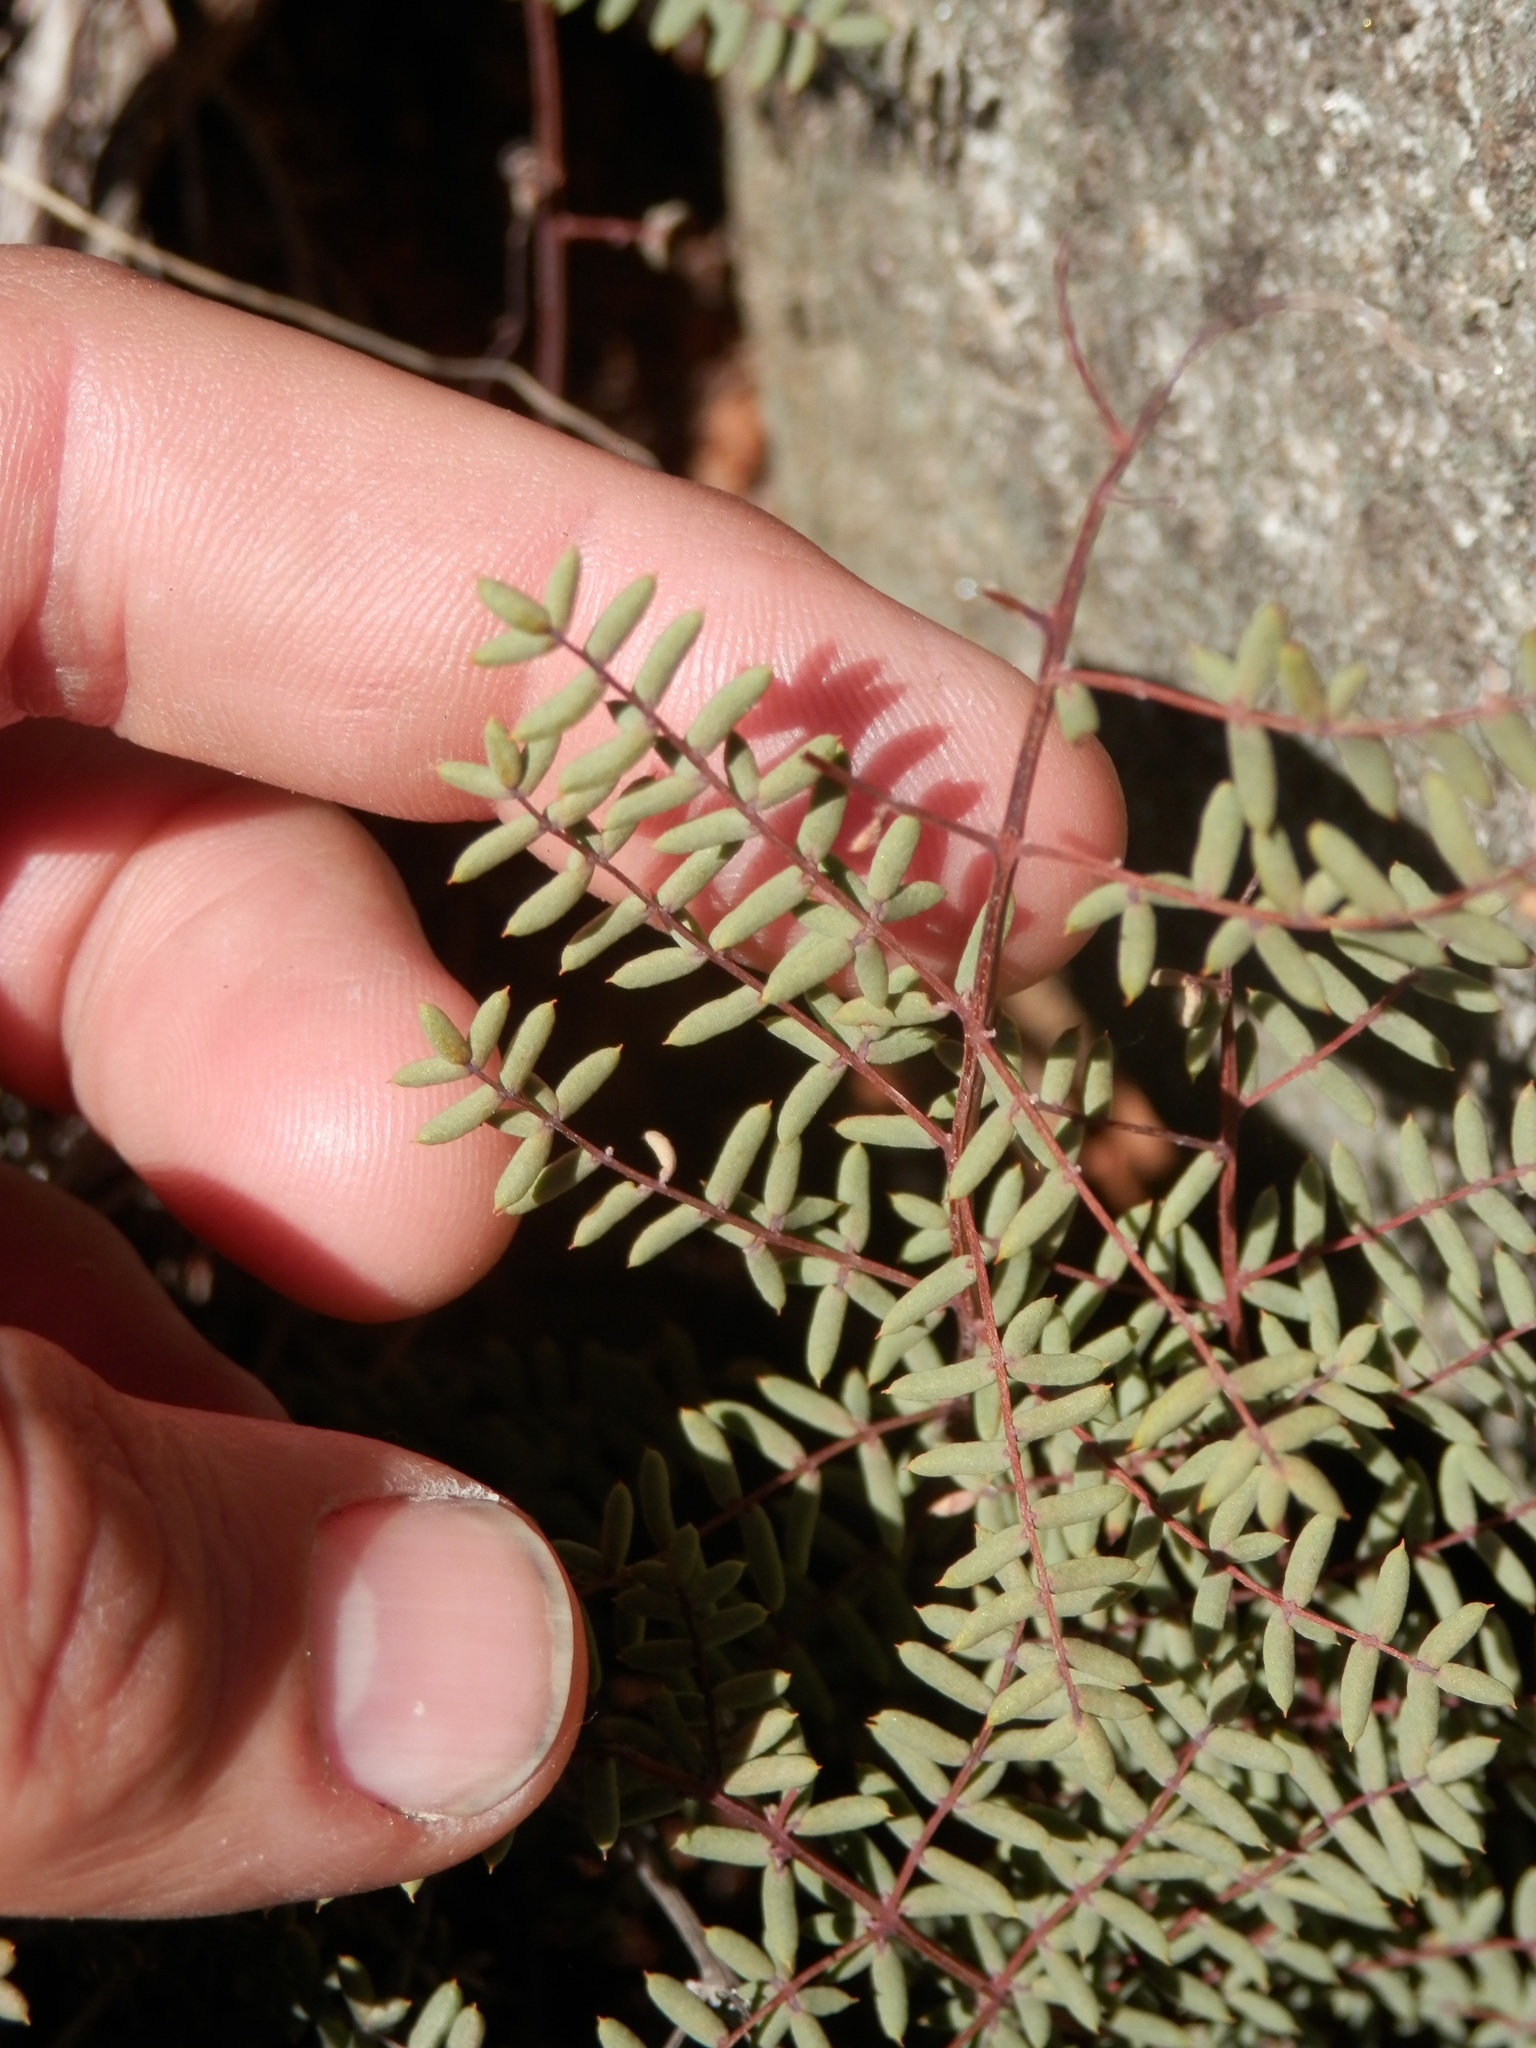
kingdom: Plantae
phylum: Tracheophyta
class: Polypodiopsida
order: Polypodiales
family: Pteridaceae
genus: Pellaea
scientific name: Pellaea mucronata
